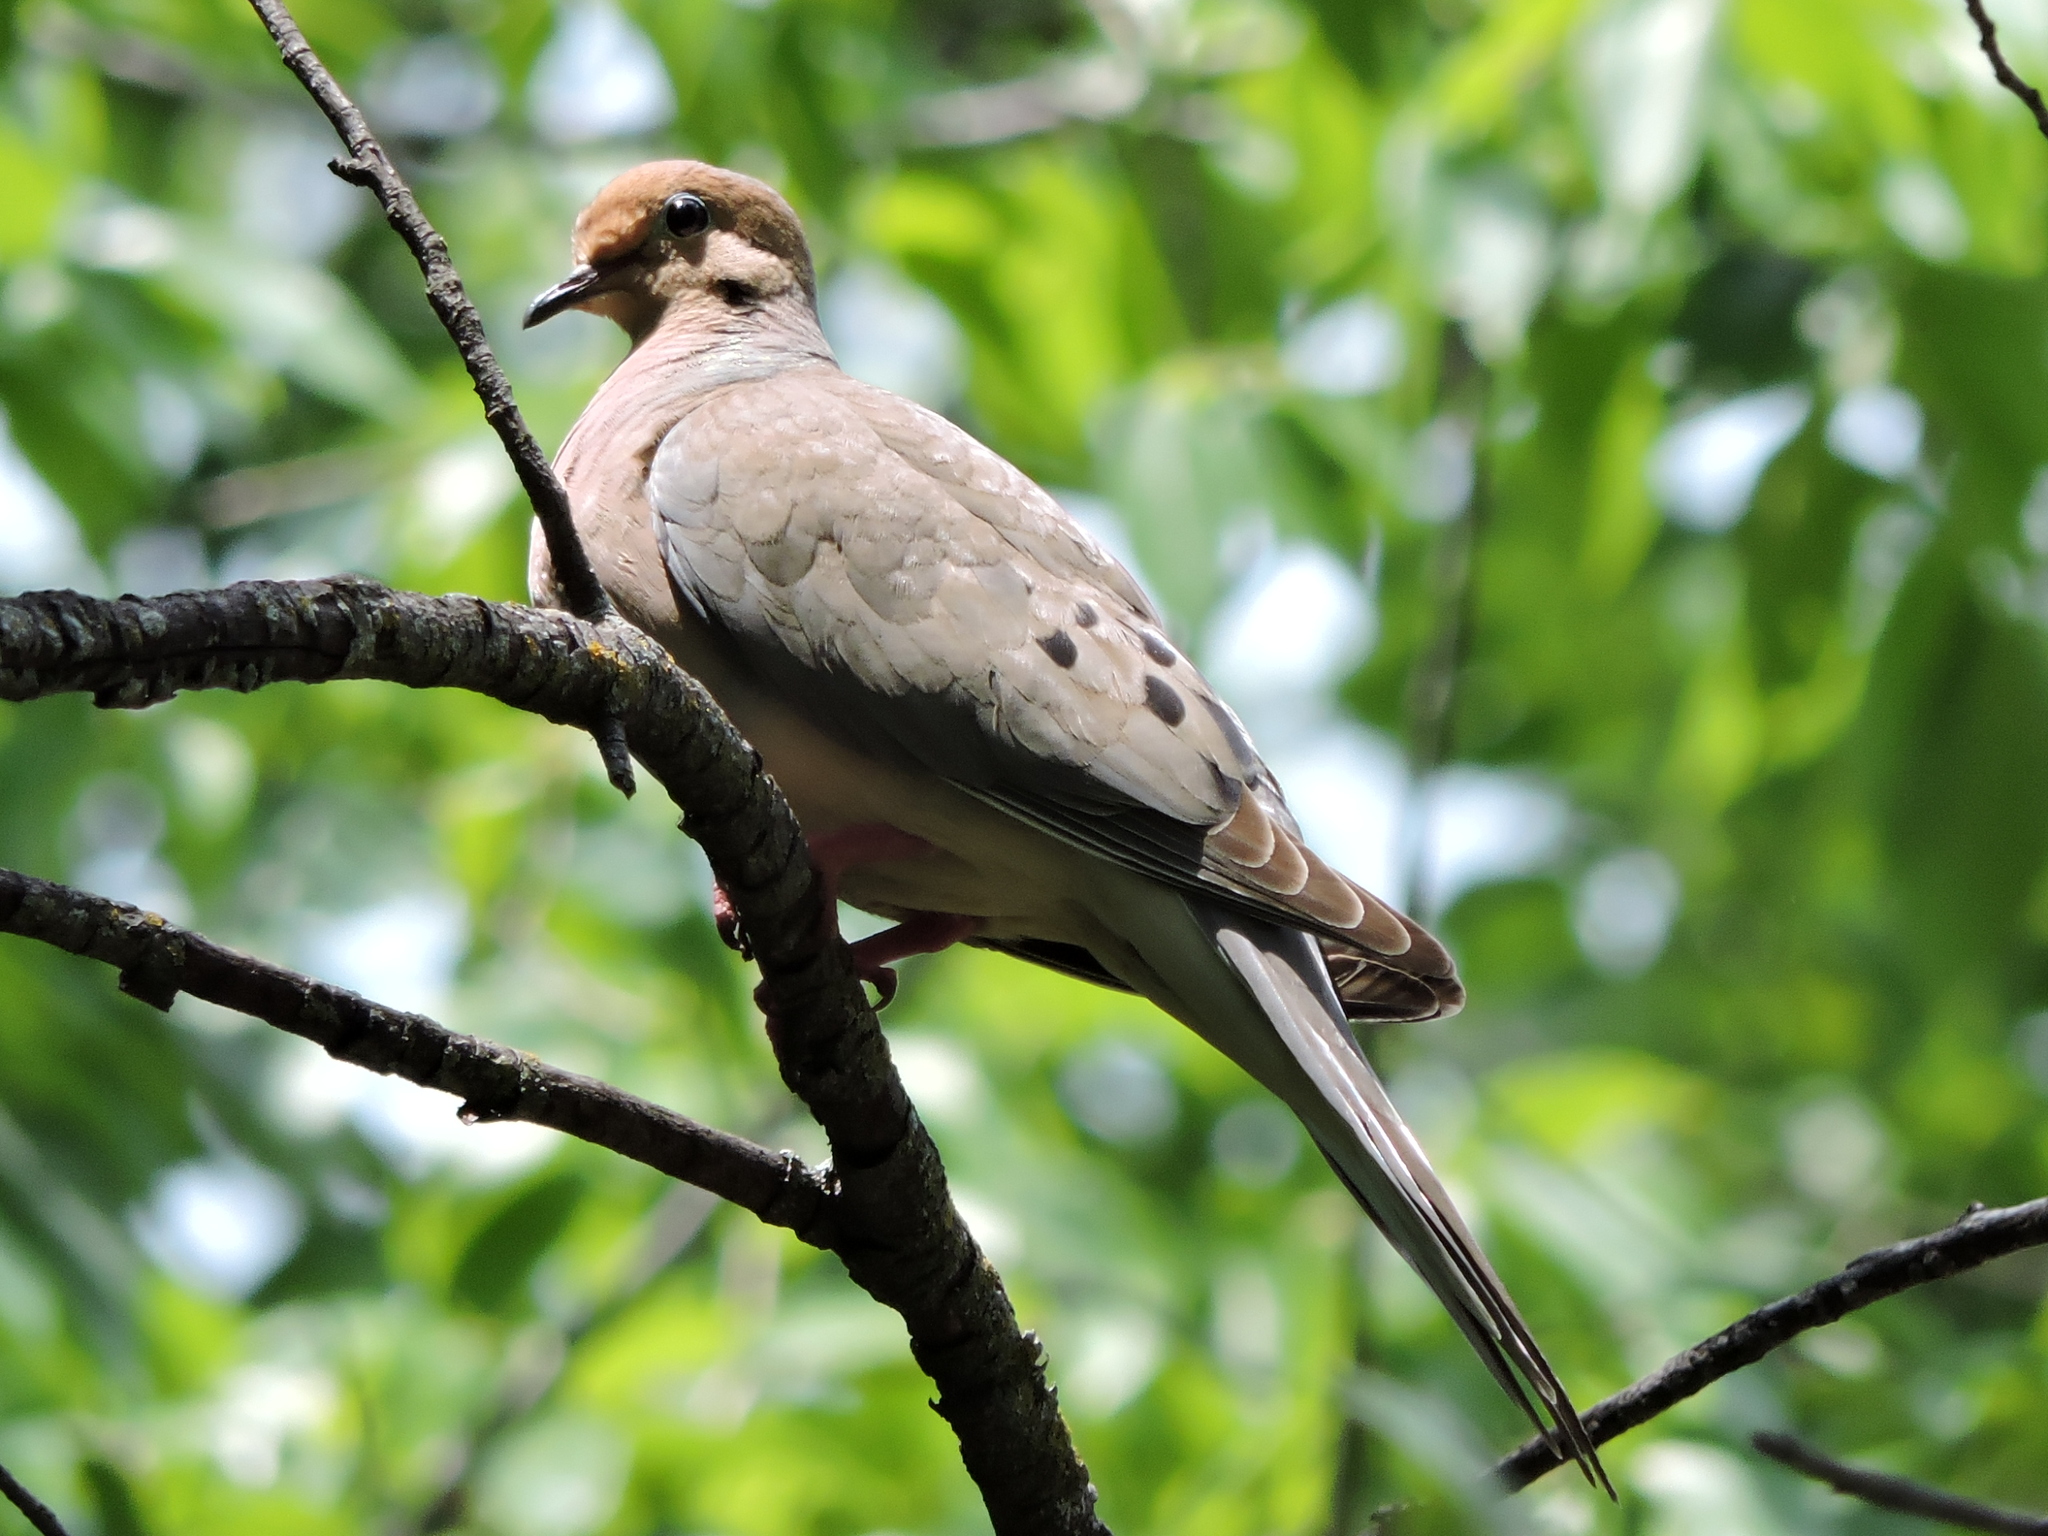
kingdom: Animalia
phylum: Chordata
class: Aves
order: Columbiformes
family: Columbidae
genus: Zenaida
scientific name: Zenaida macroura
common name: Mourning dove
